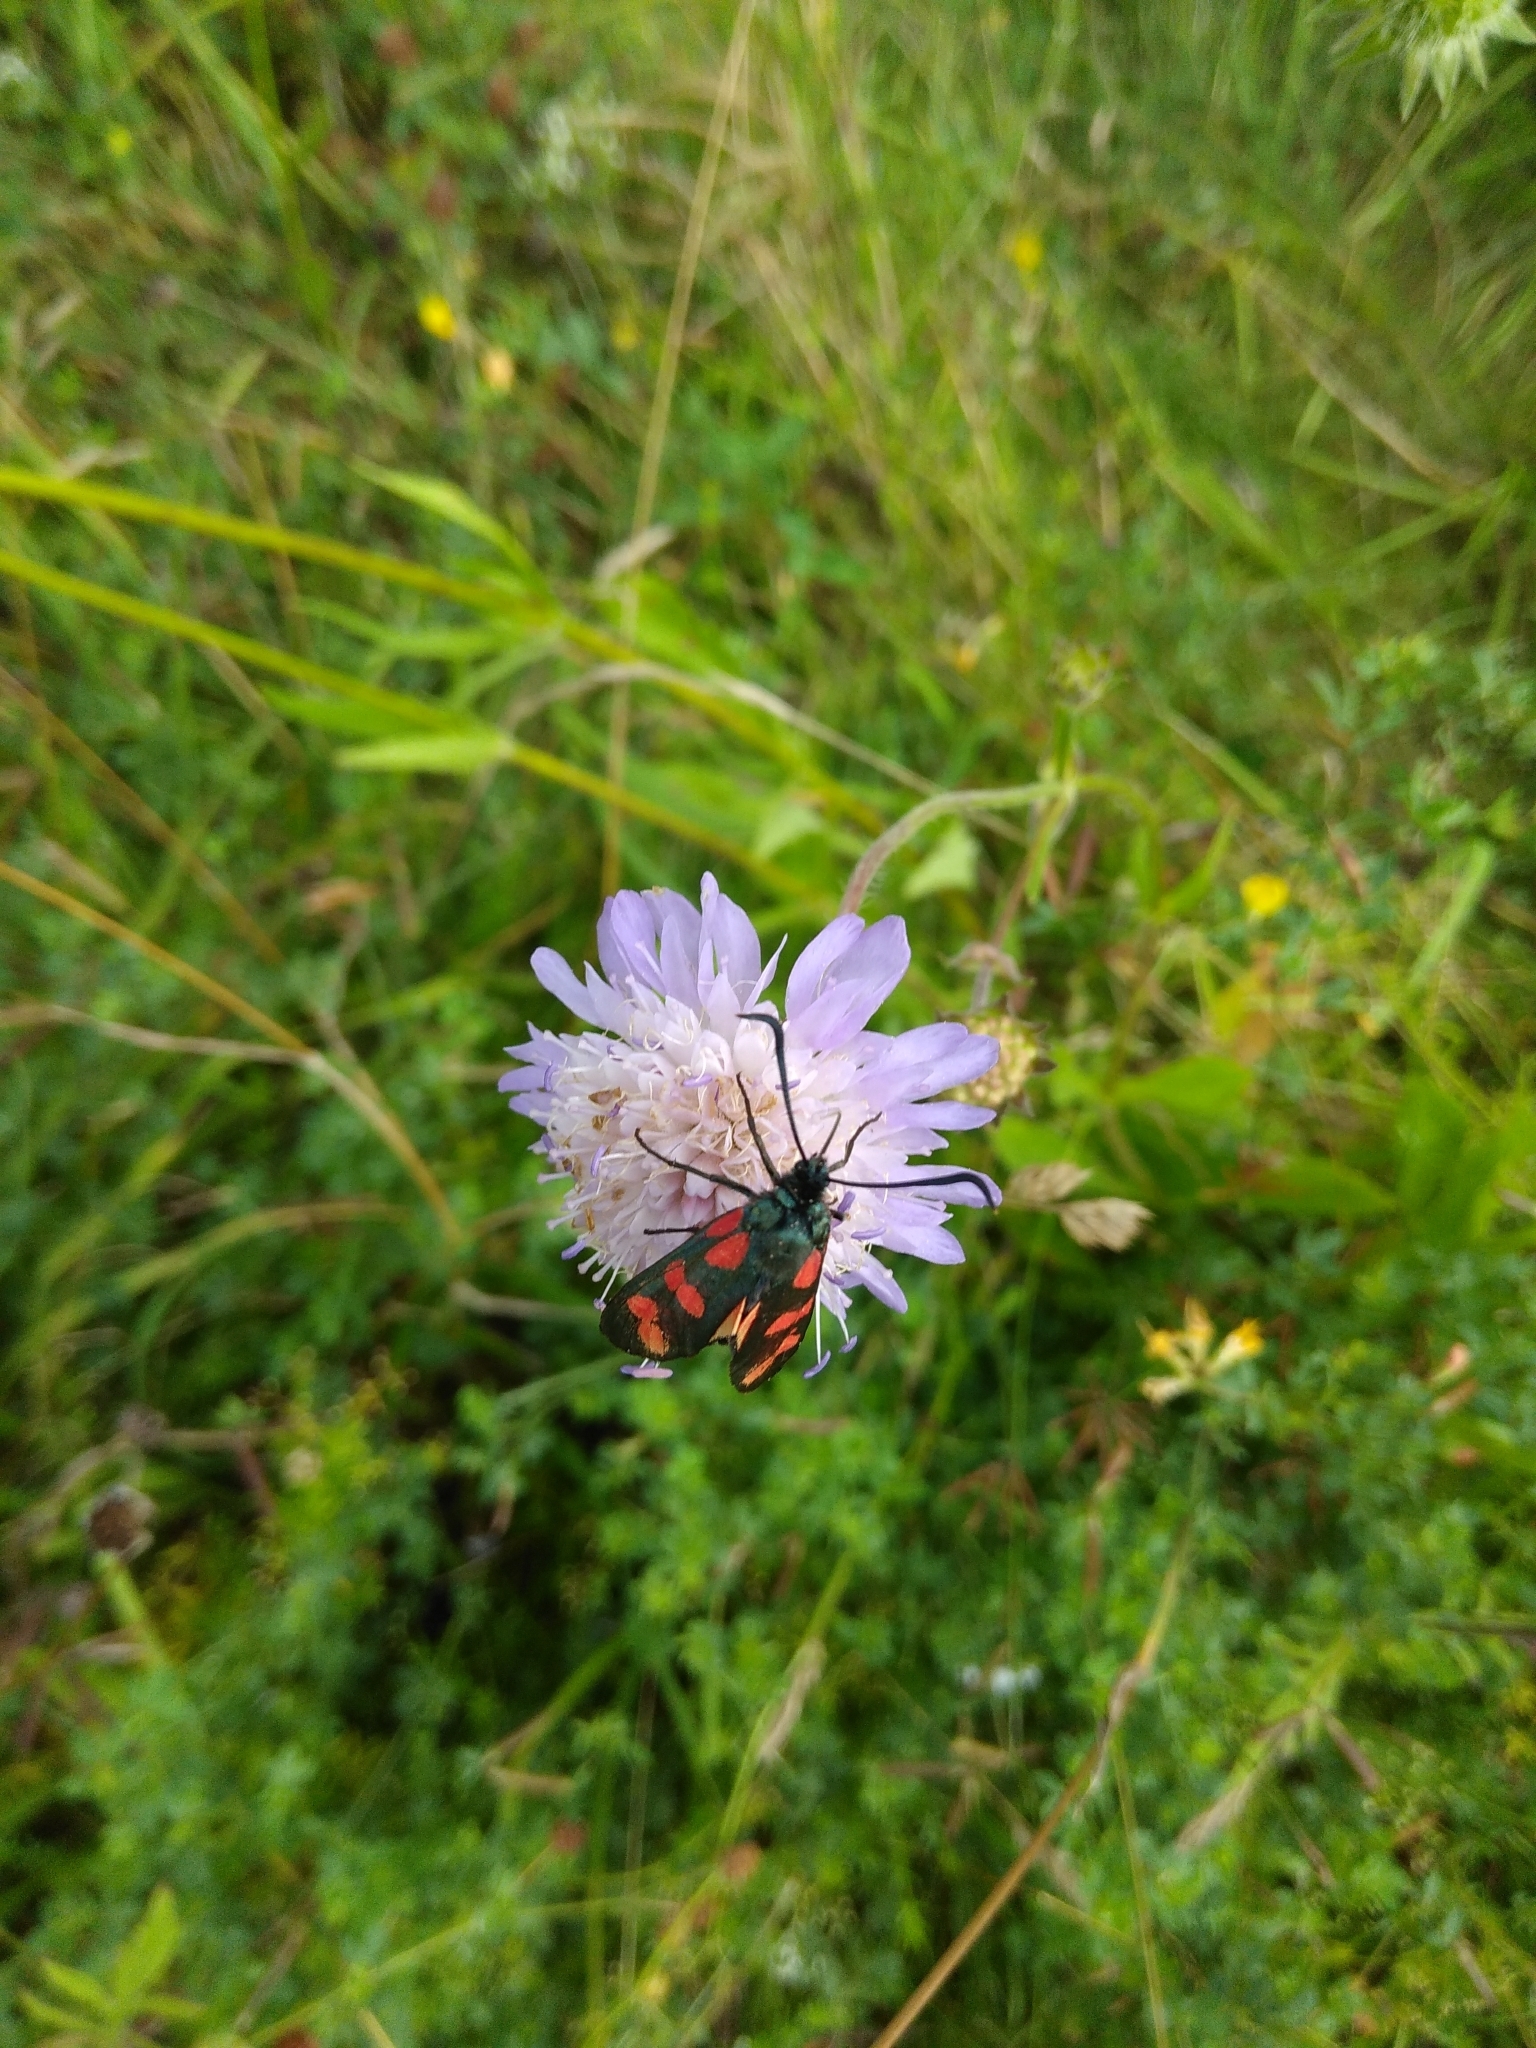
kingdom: Animalia
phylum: Arthropoda
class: Insecta
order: Lepidoptera
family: Zygaenidae
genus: Zygaena
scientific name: Zygaena filipendulae
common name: Six-spot burnet
